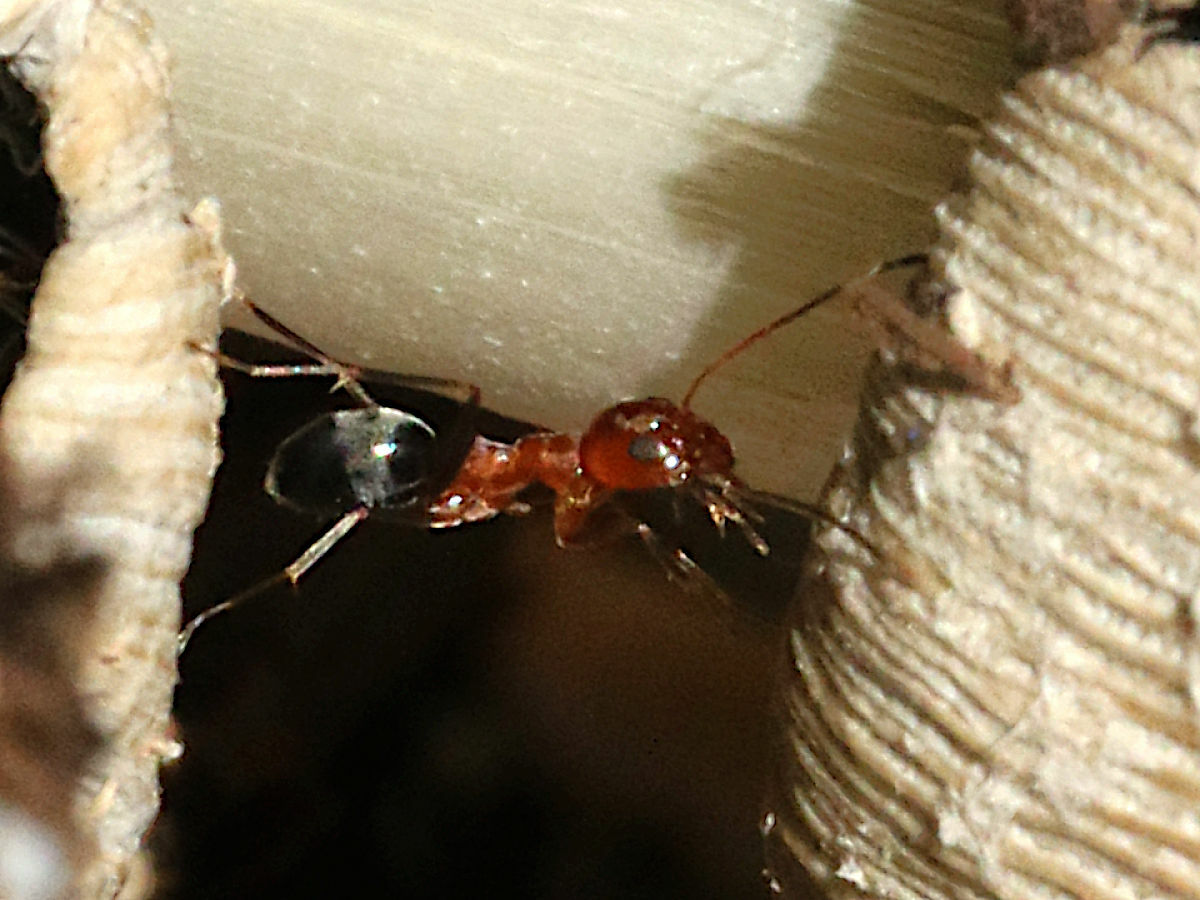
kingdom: Animalia
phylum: Arthropoda
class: Insecta
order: Hymenoptera
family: Formicidae
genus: Dorymyrmex
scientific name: Dorymyrmex bicolor
